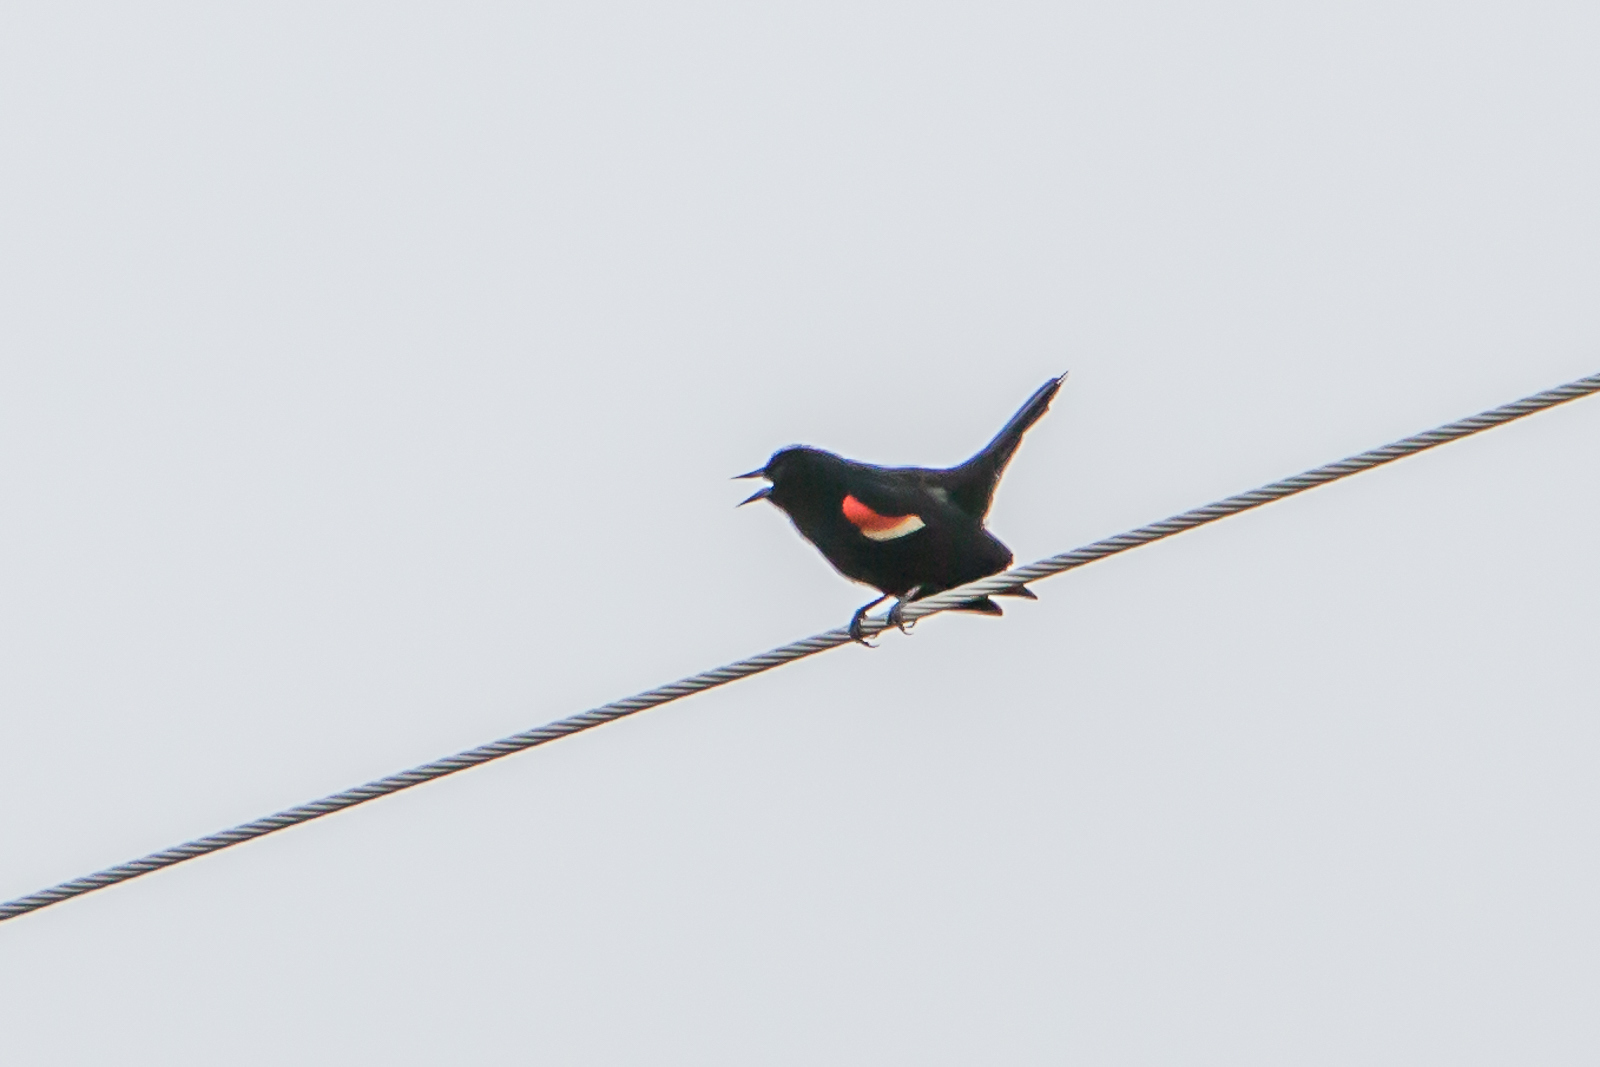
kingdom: Animalia
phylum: Chordata
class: Aves
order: Passeriformes
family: Icteridae
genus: Agelaius
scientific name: Agelaius phoeniceus
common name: Red-winged blackbird
